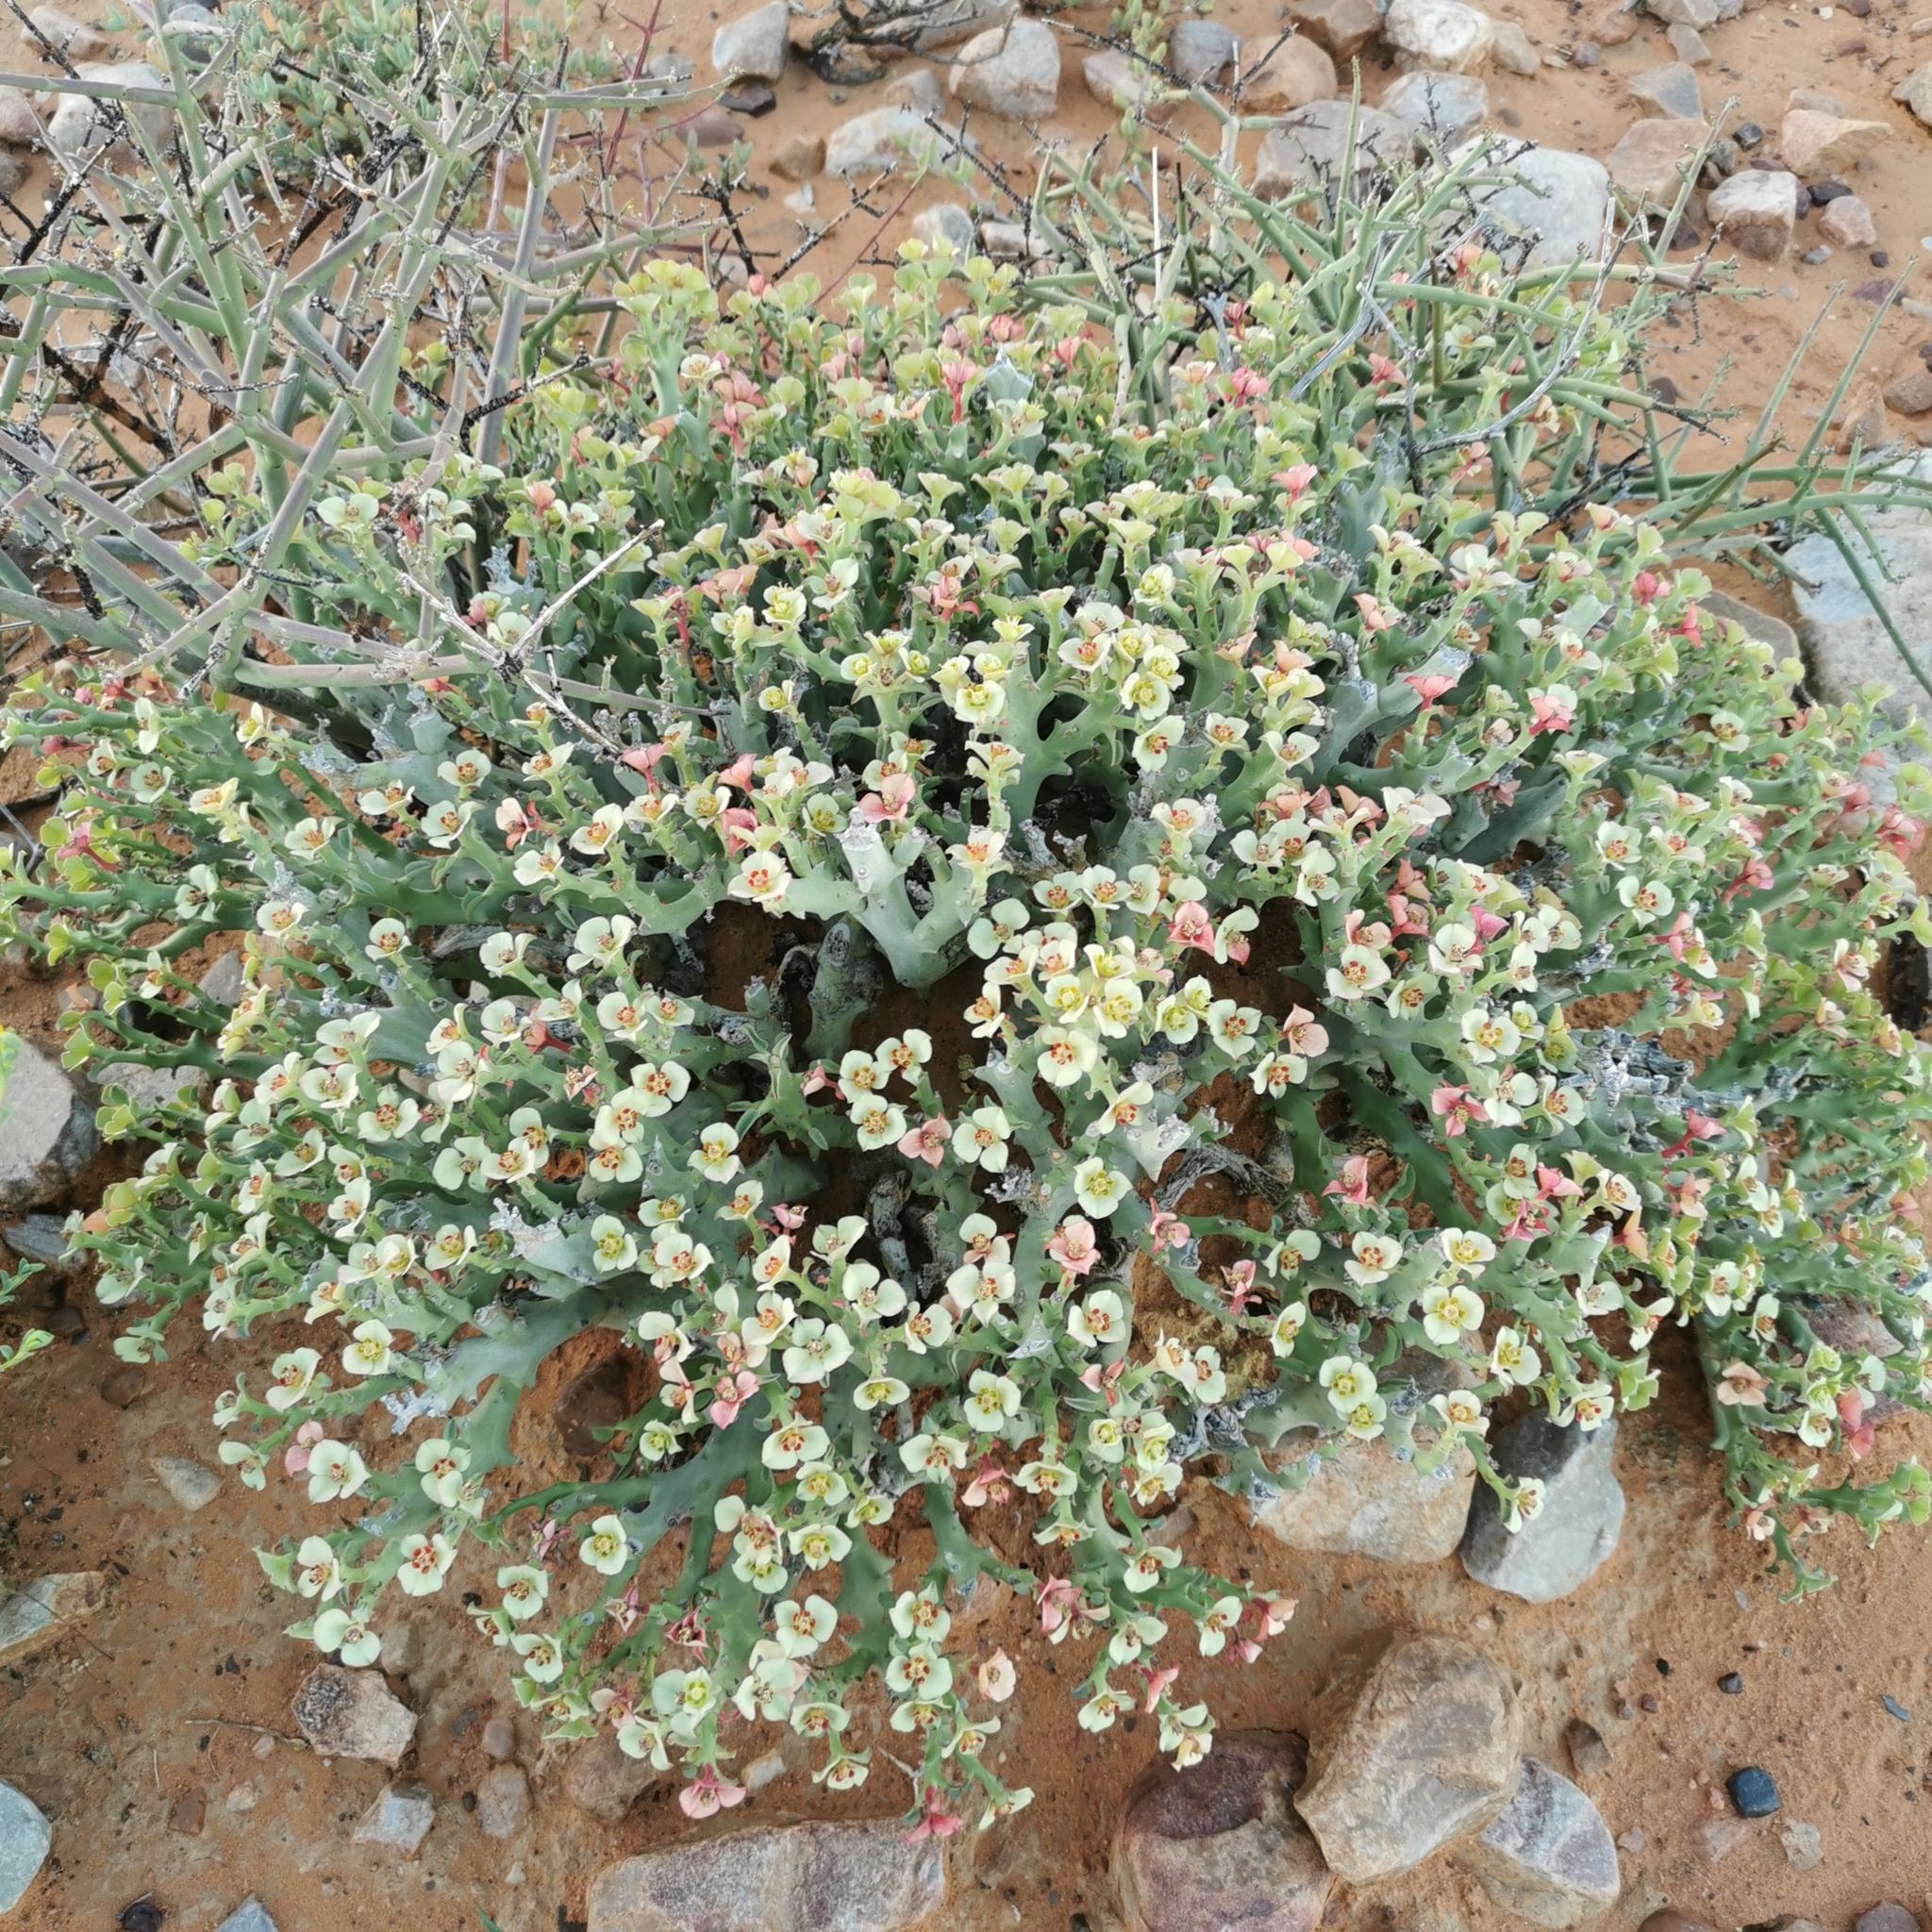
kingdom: Plantae
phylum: Tracheophyta
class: Magnoliopsida
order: Malpighiales
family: Euphorbiaceae
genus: Euphorbia
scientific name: Euphorbia hamata
